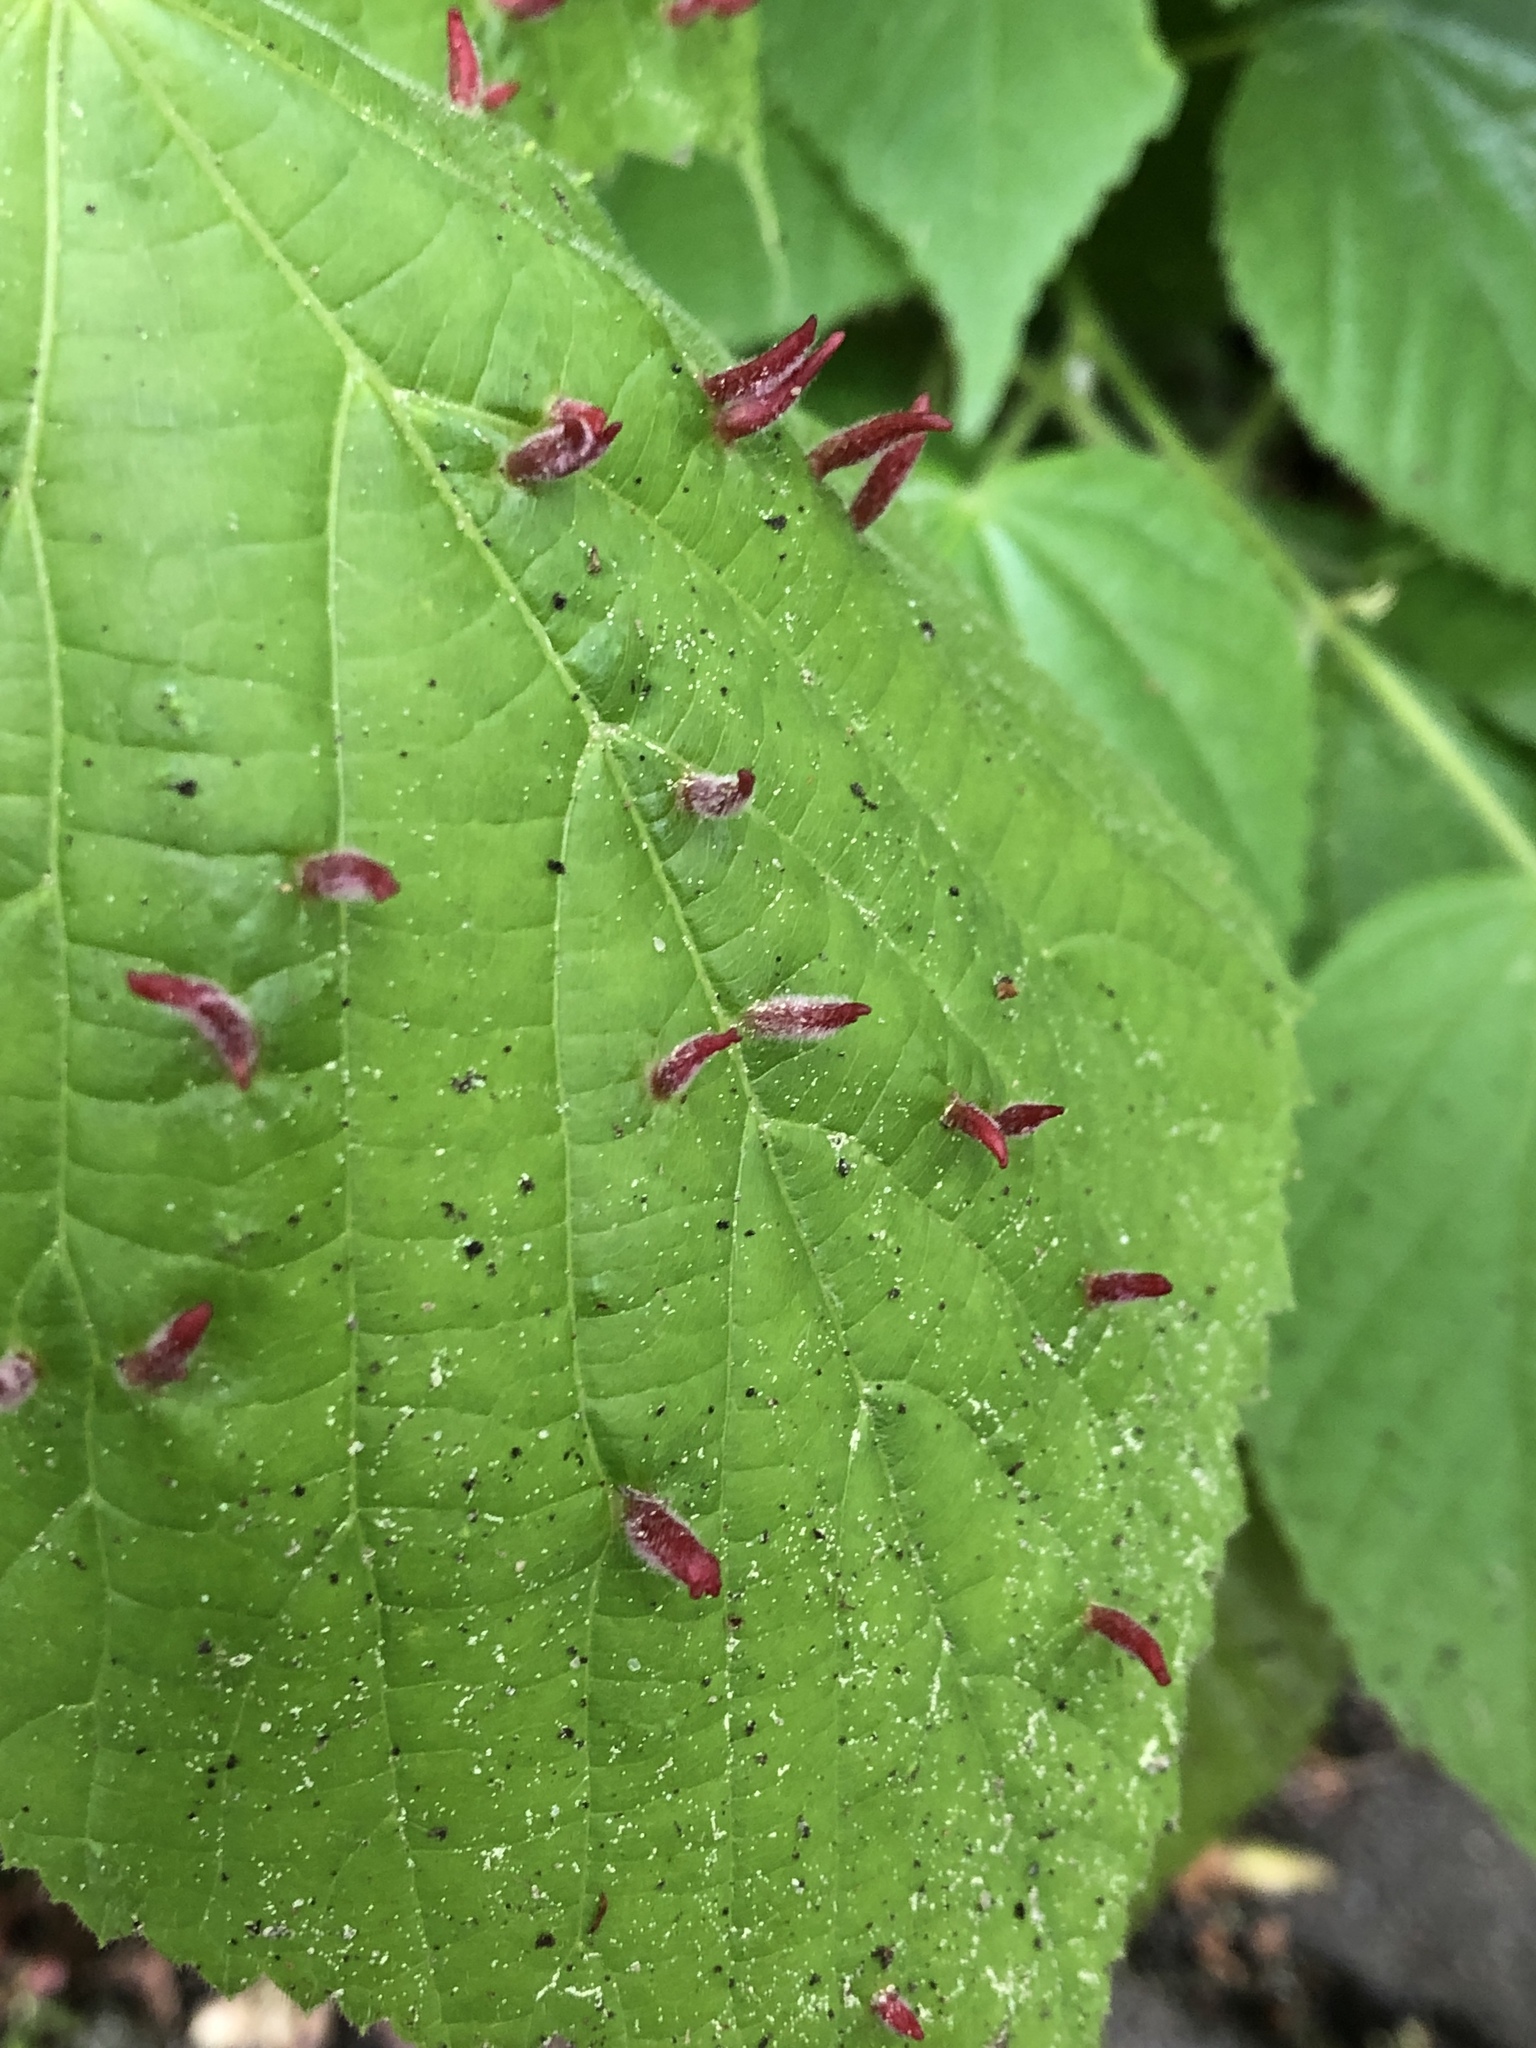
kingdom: Animalia
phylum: Arthropoda
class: Arachnida
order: Trombidiformes
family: Eriophyidae
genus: Eriophyes
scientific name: Eriophyes tiliae
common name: Red nail gall mite
